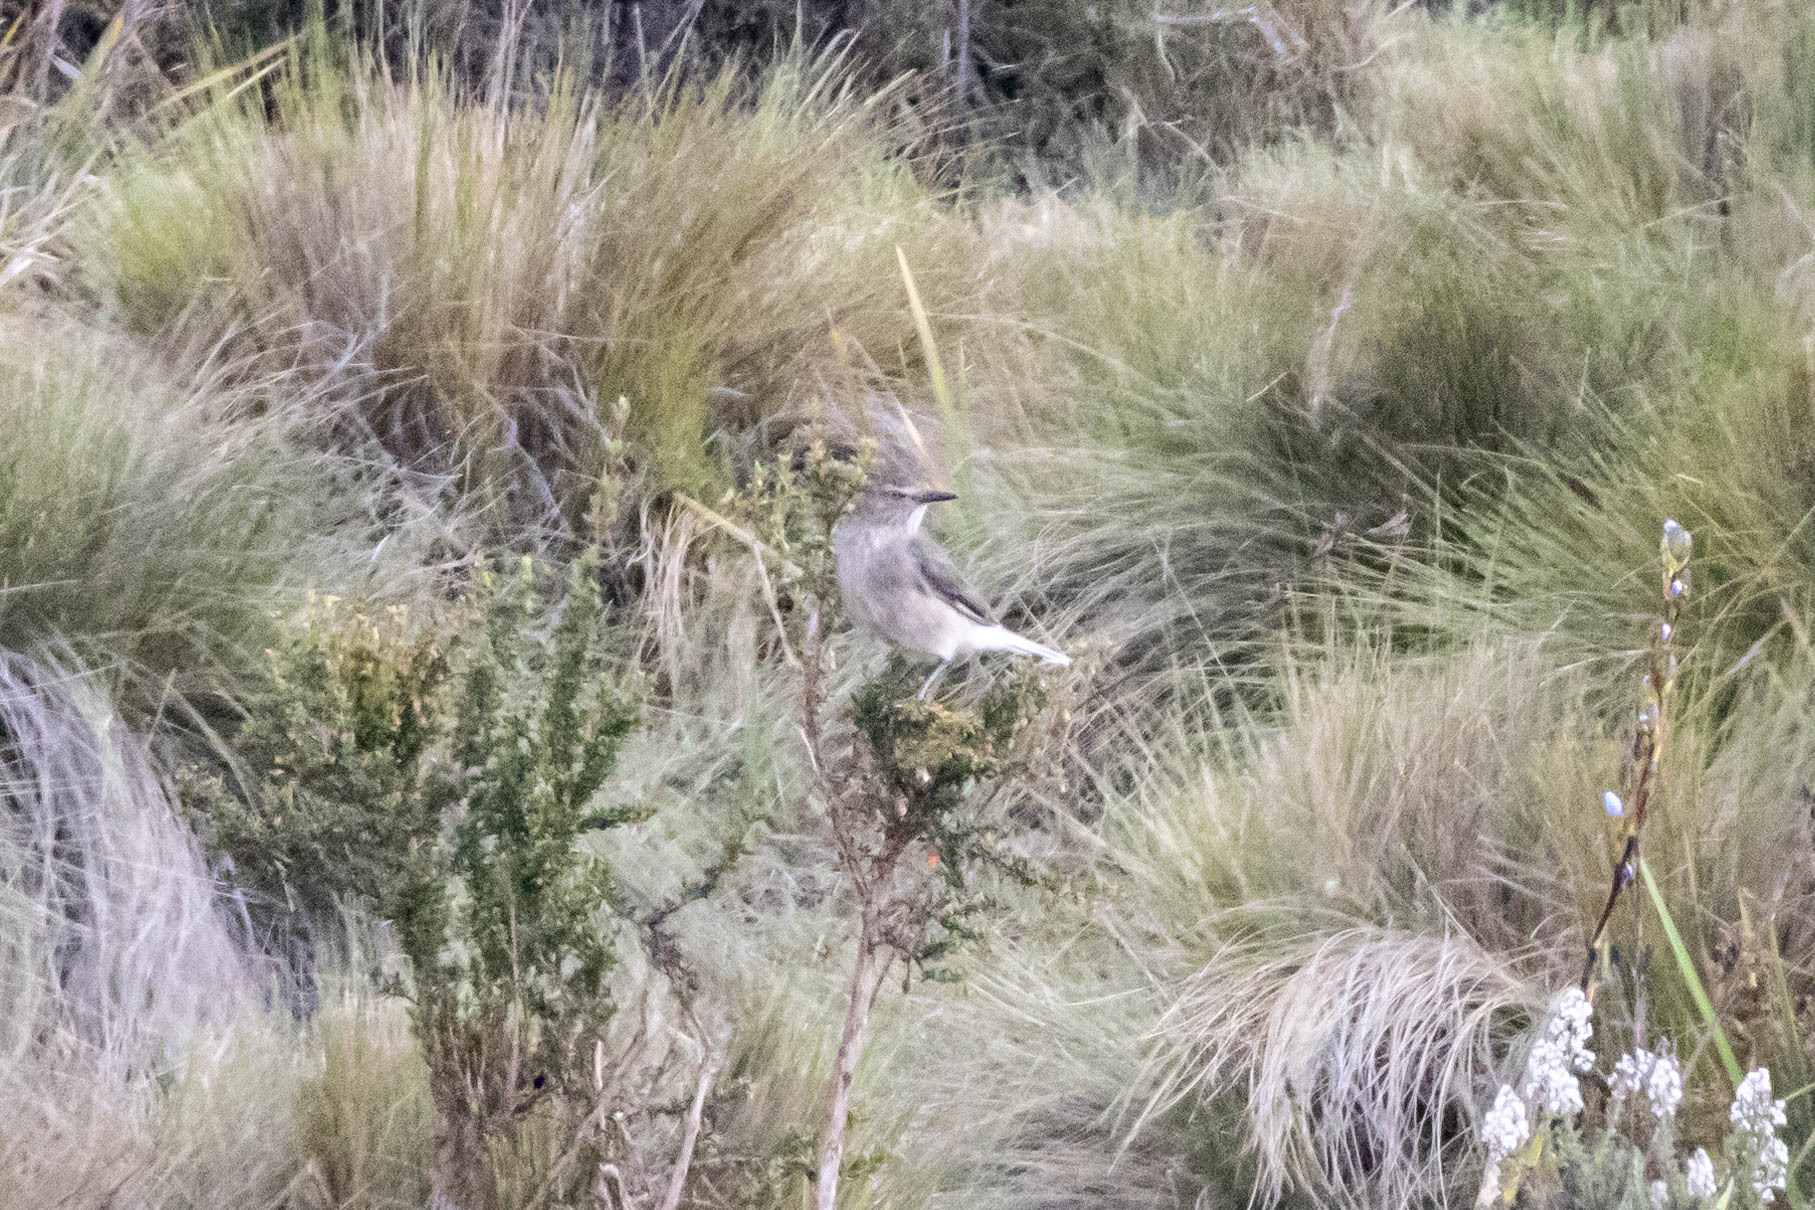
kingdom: Animalia
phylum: Chordata
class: Aves
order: Passeriformes
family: Tyrannidae
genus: Agriornis
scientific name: Agriornis montanus
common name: Black-billed shrike-tyrant
